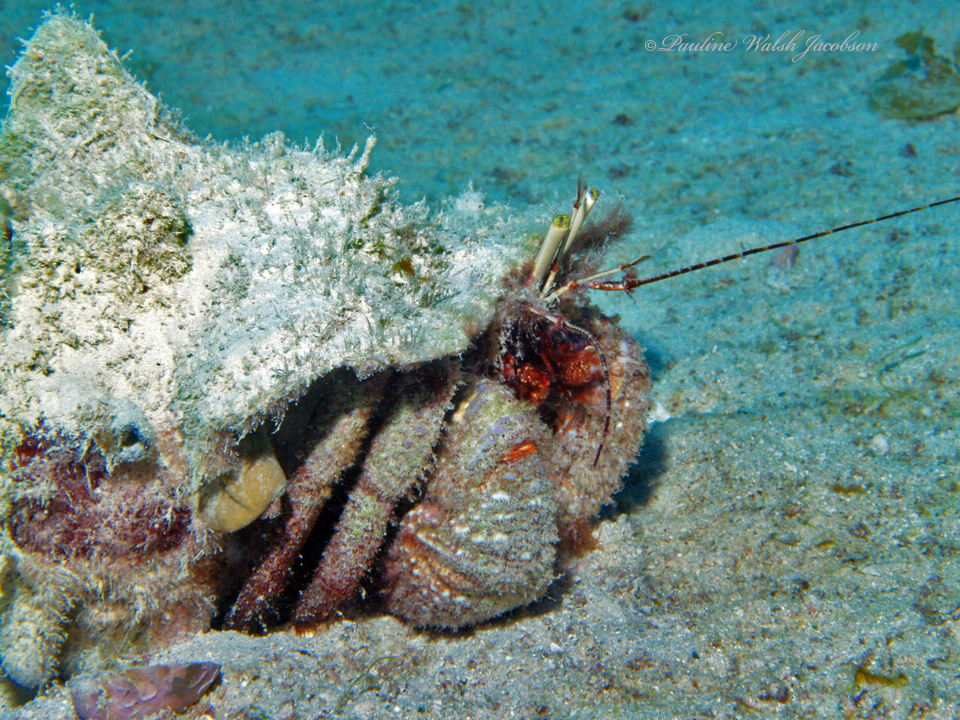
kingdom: Animalia
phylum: Arthropoda
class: Malacostraca
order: Decapoda
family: Diogenidae
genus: Petrochirus
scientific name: Petrochirus diogenes
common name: Giant hermit crab
